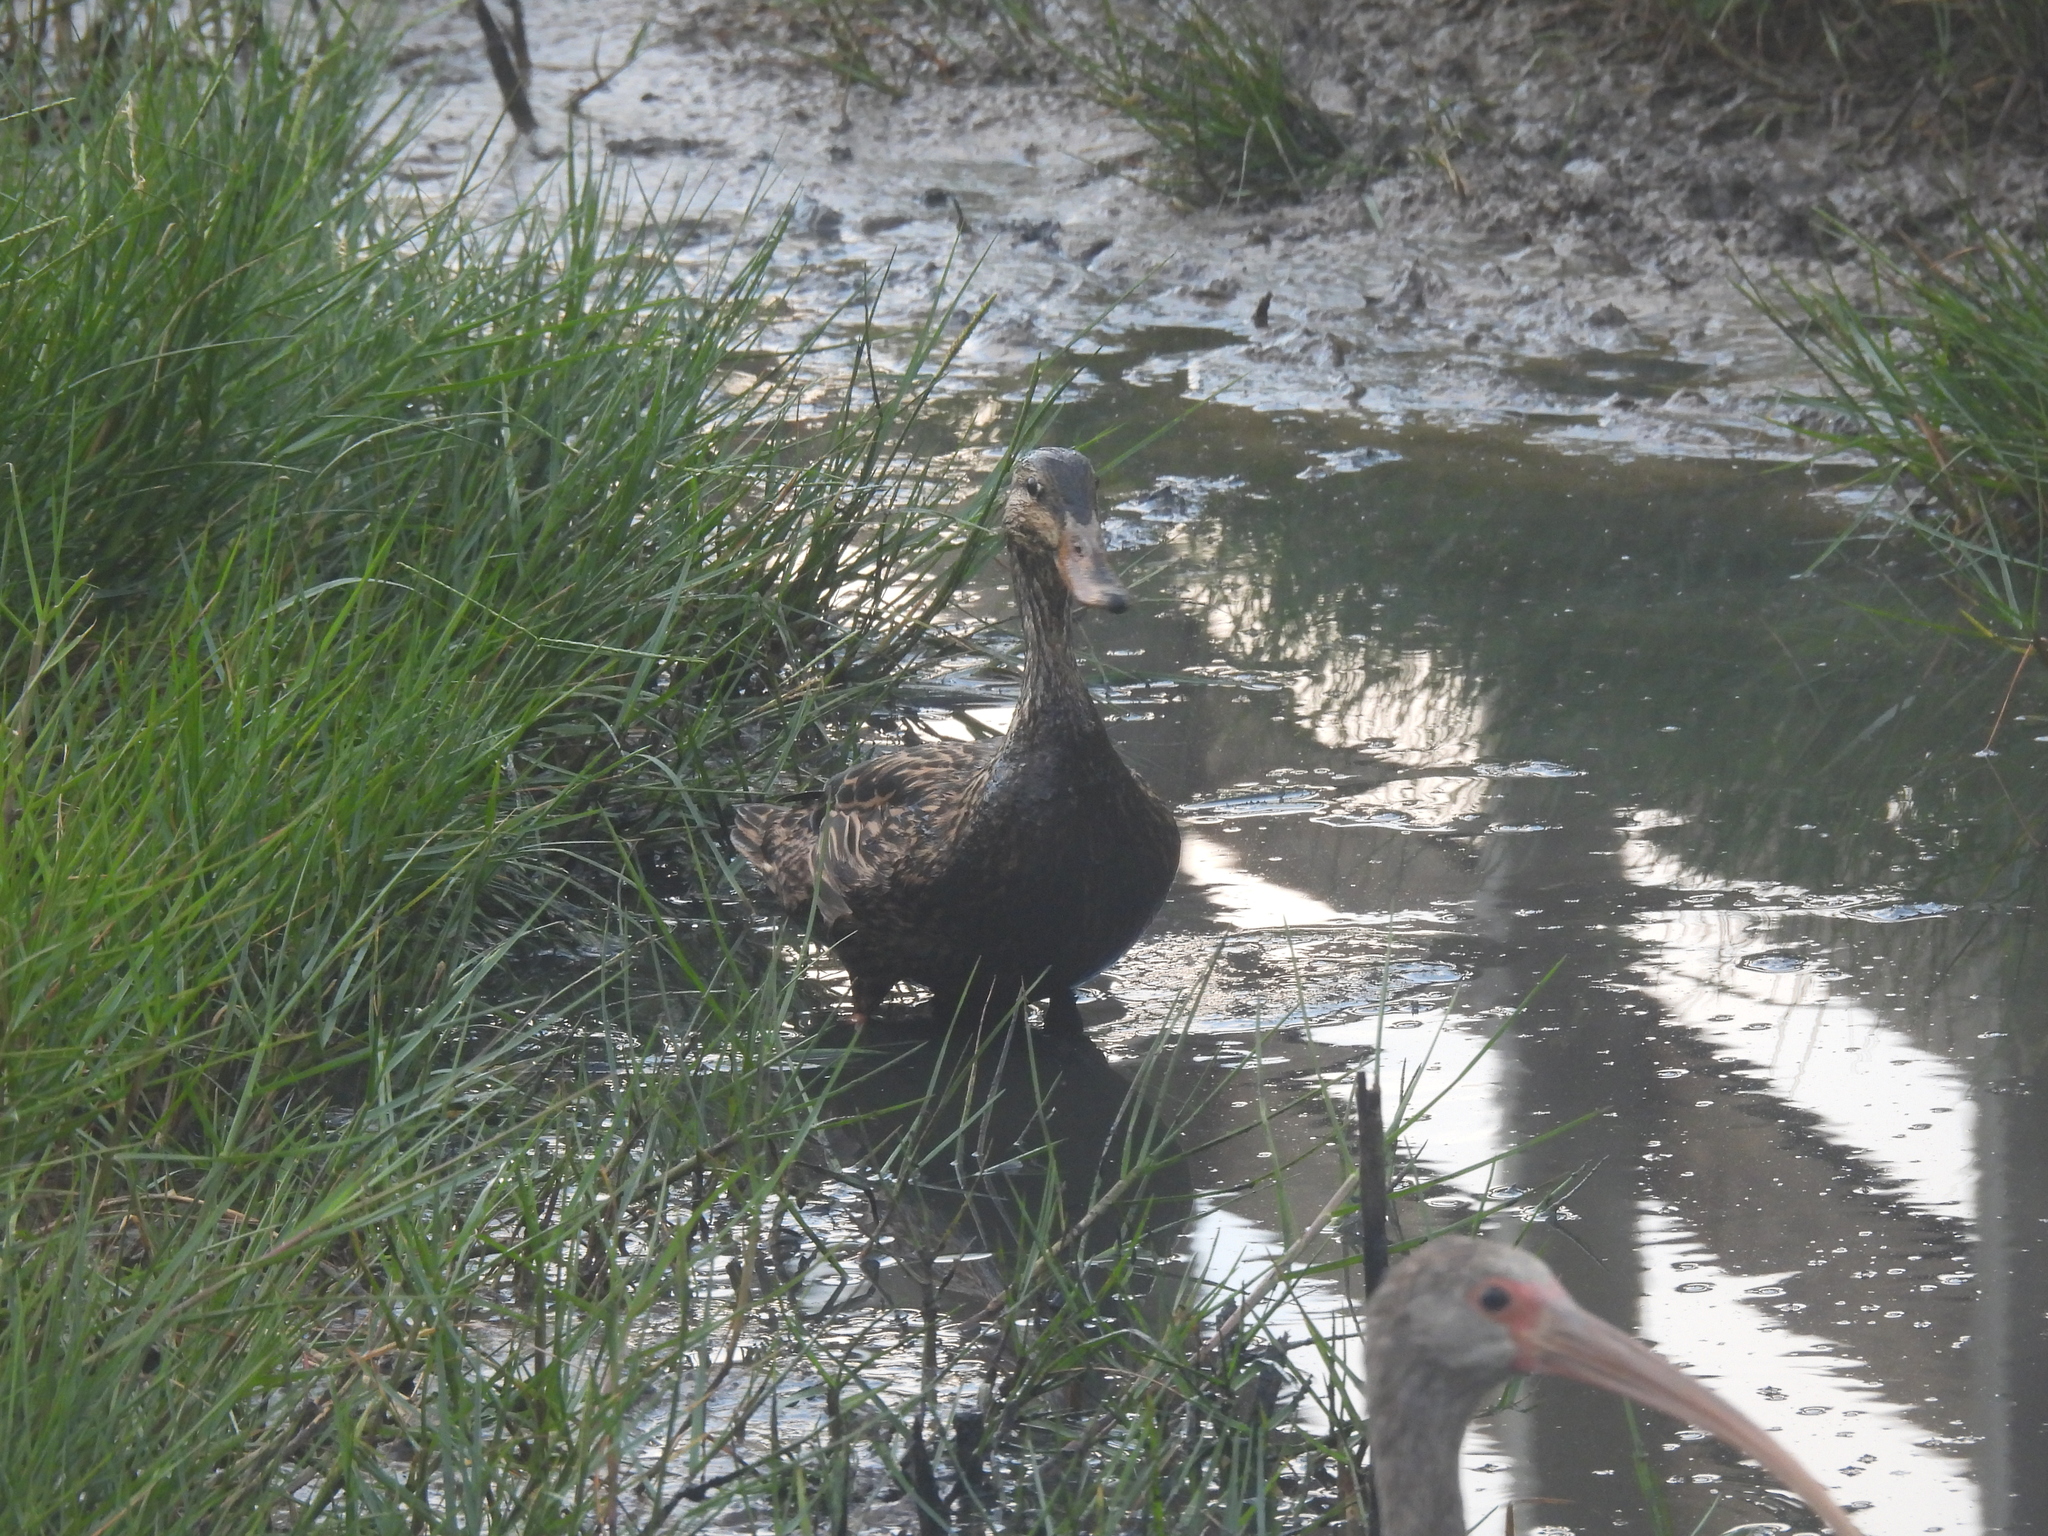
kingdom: Animalia
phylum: Chordata
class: Aves
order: Anseriformes
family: Anatidae
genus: Anas
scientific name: Anas fulvigula
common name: Mottled duck
